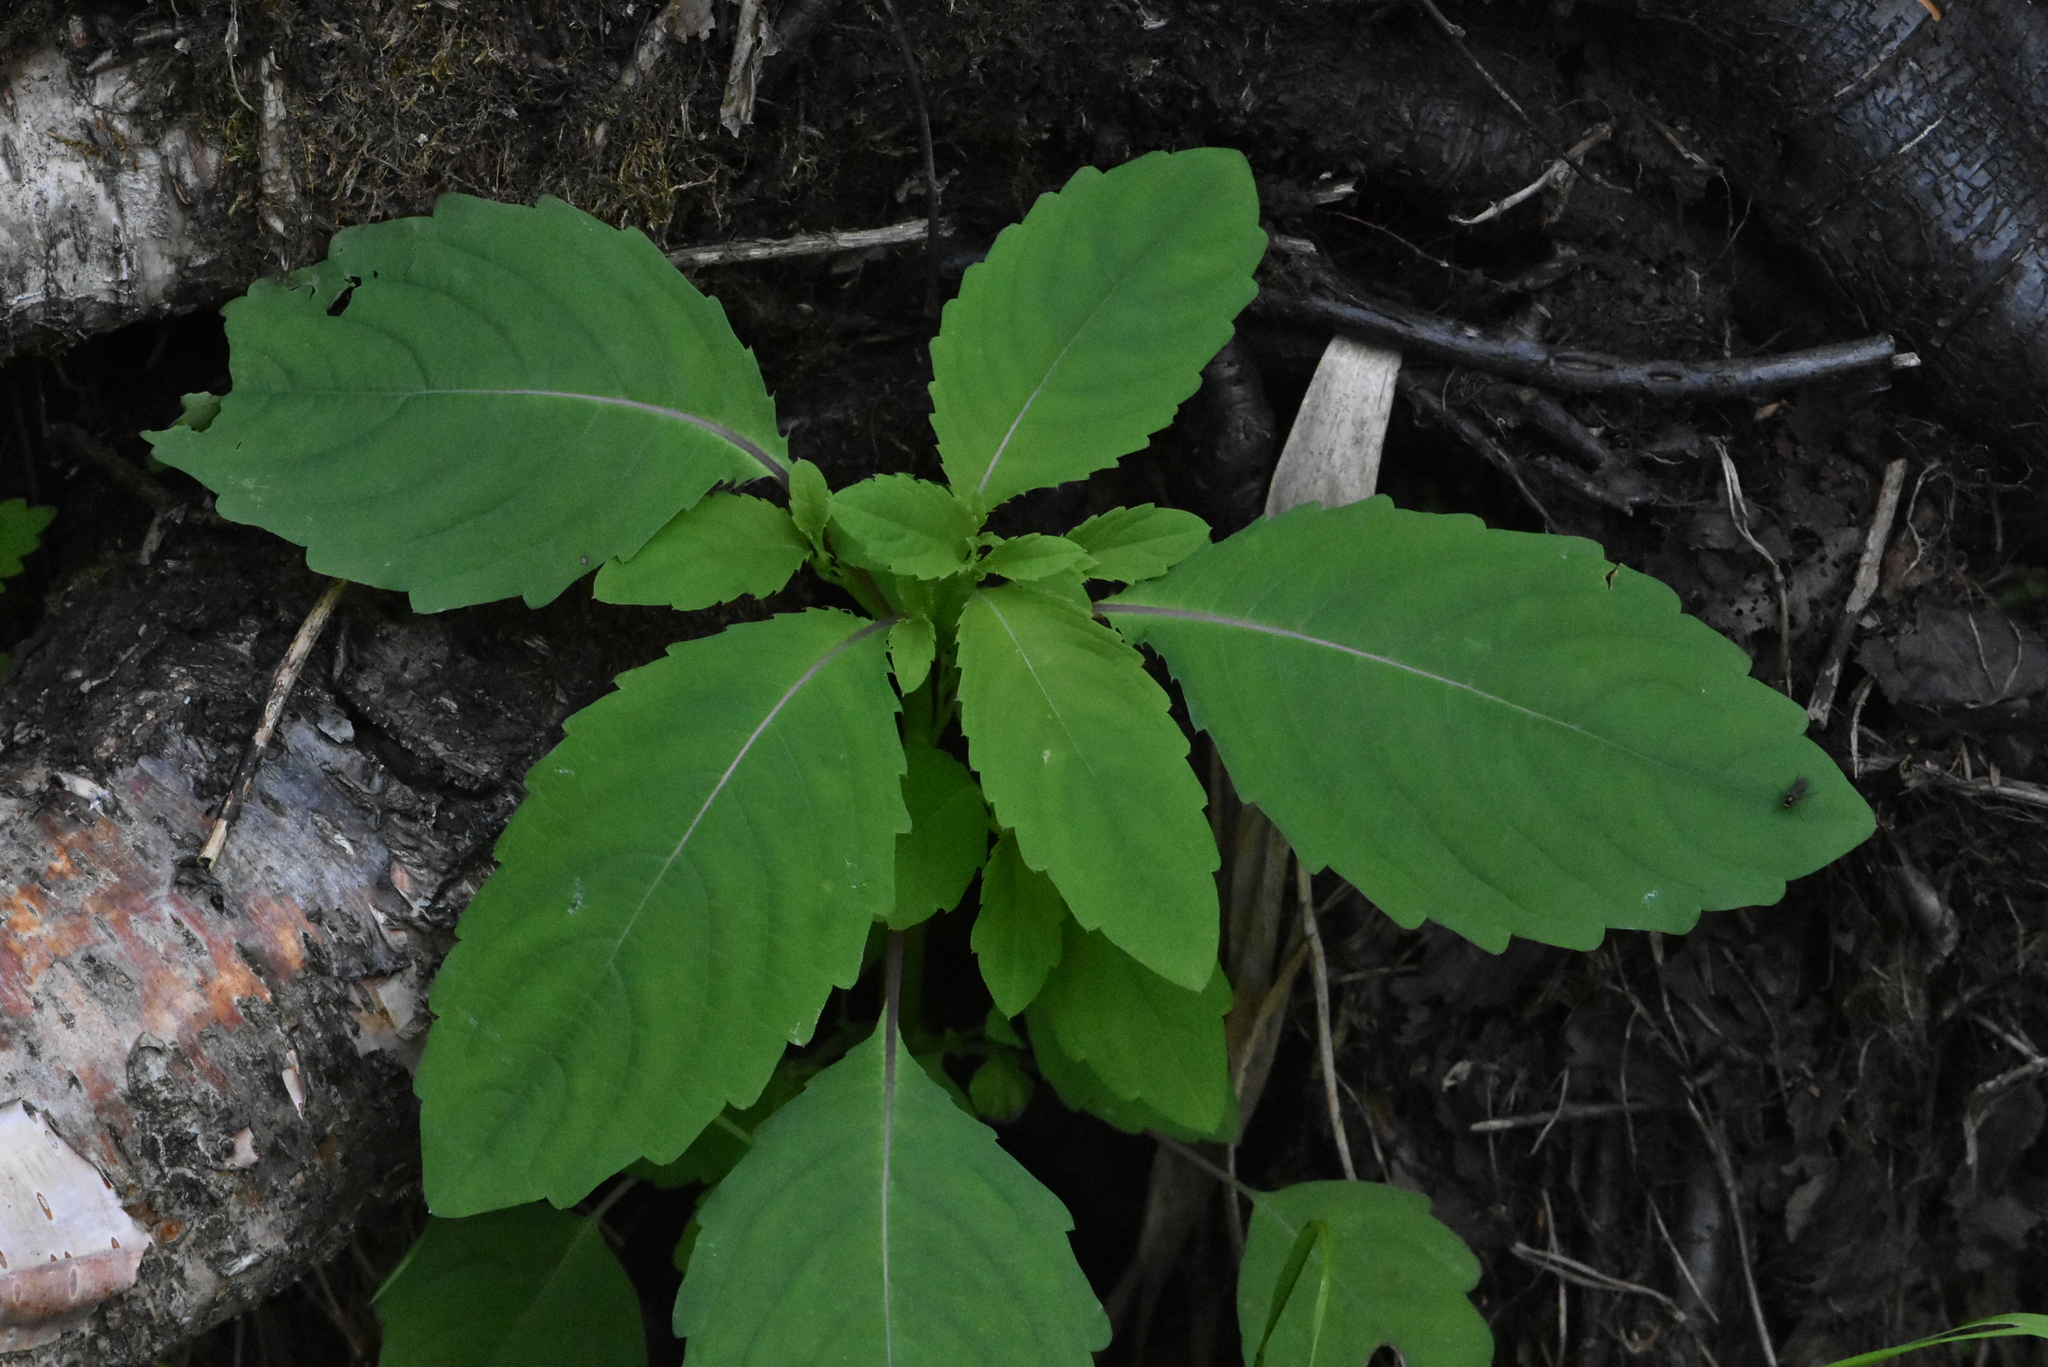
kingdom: Plantae
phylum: Tracheophyta
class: Magnoliopsida
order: Ericales
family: Balsaminaceae
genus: Impatiens
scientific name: Impatiens noli-tangere
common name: Touch-me-not balsam
